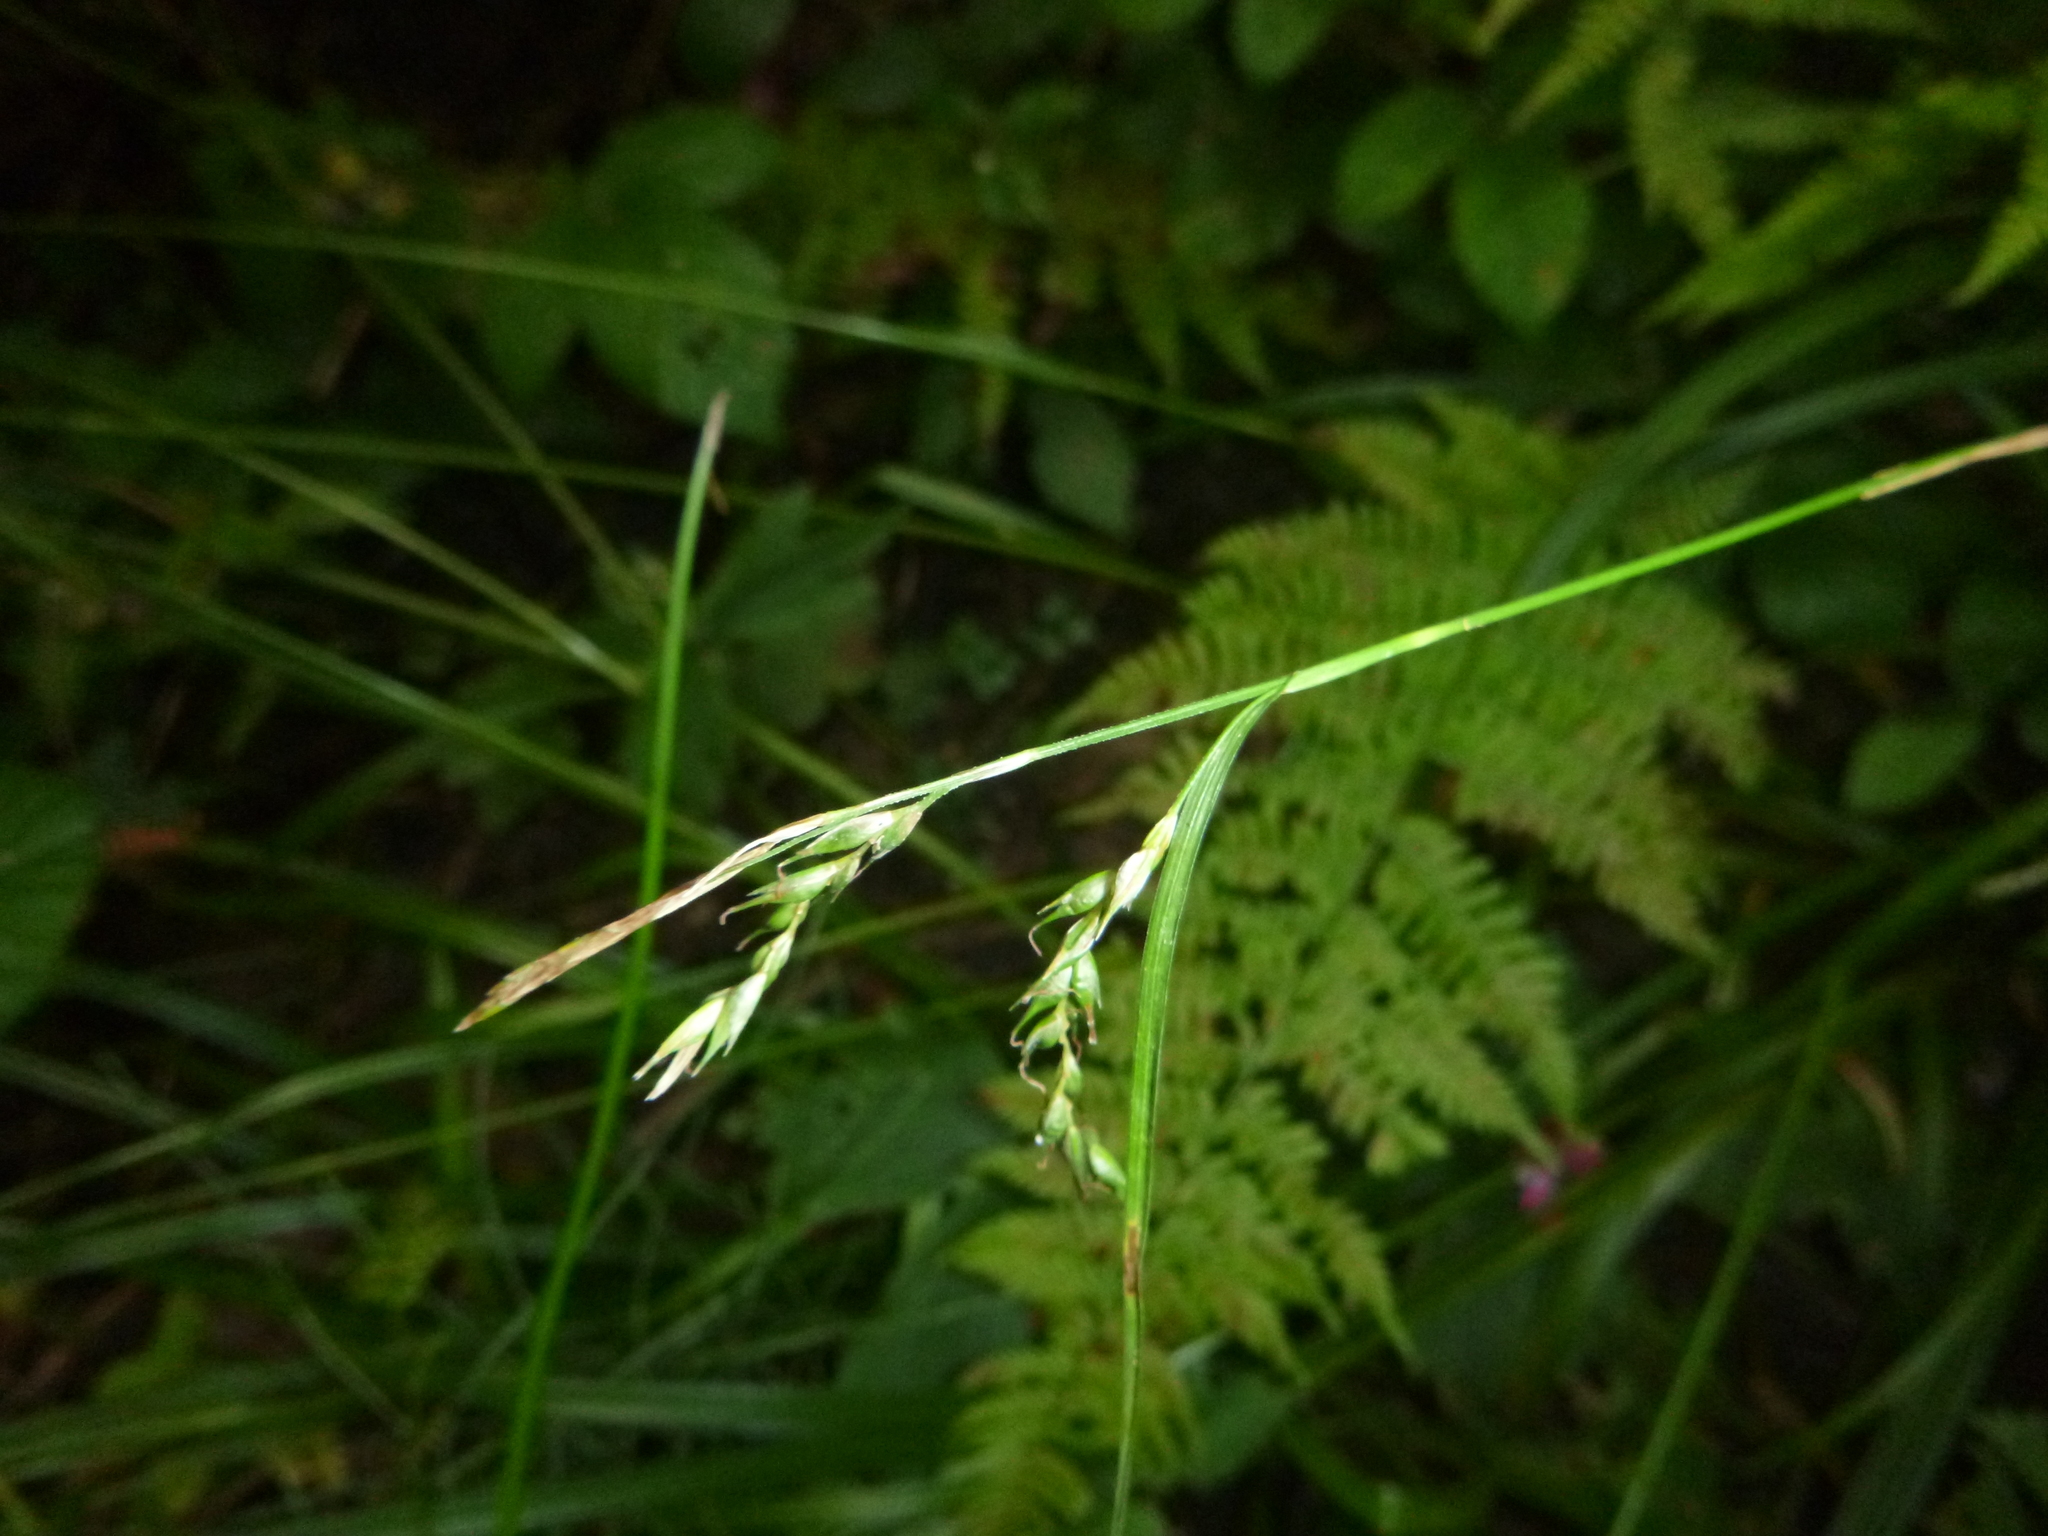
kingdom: Plantae
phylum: Tracheophyta
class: Liliopsida
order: Poales
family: Cyperaceae
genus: Carex
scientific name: Carex sylvatica
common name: Wood-sedge
